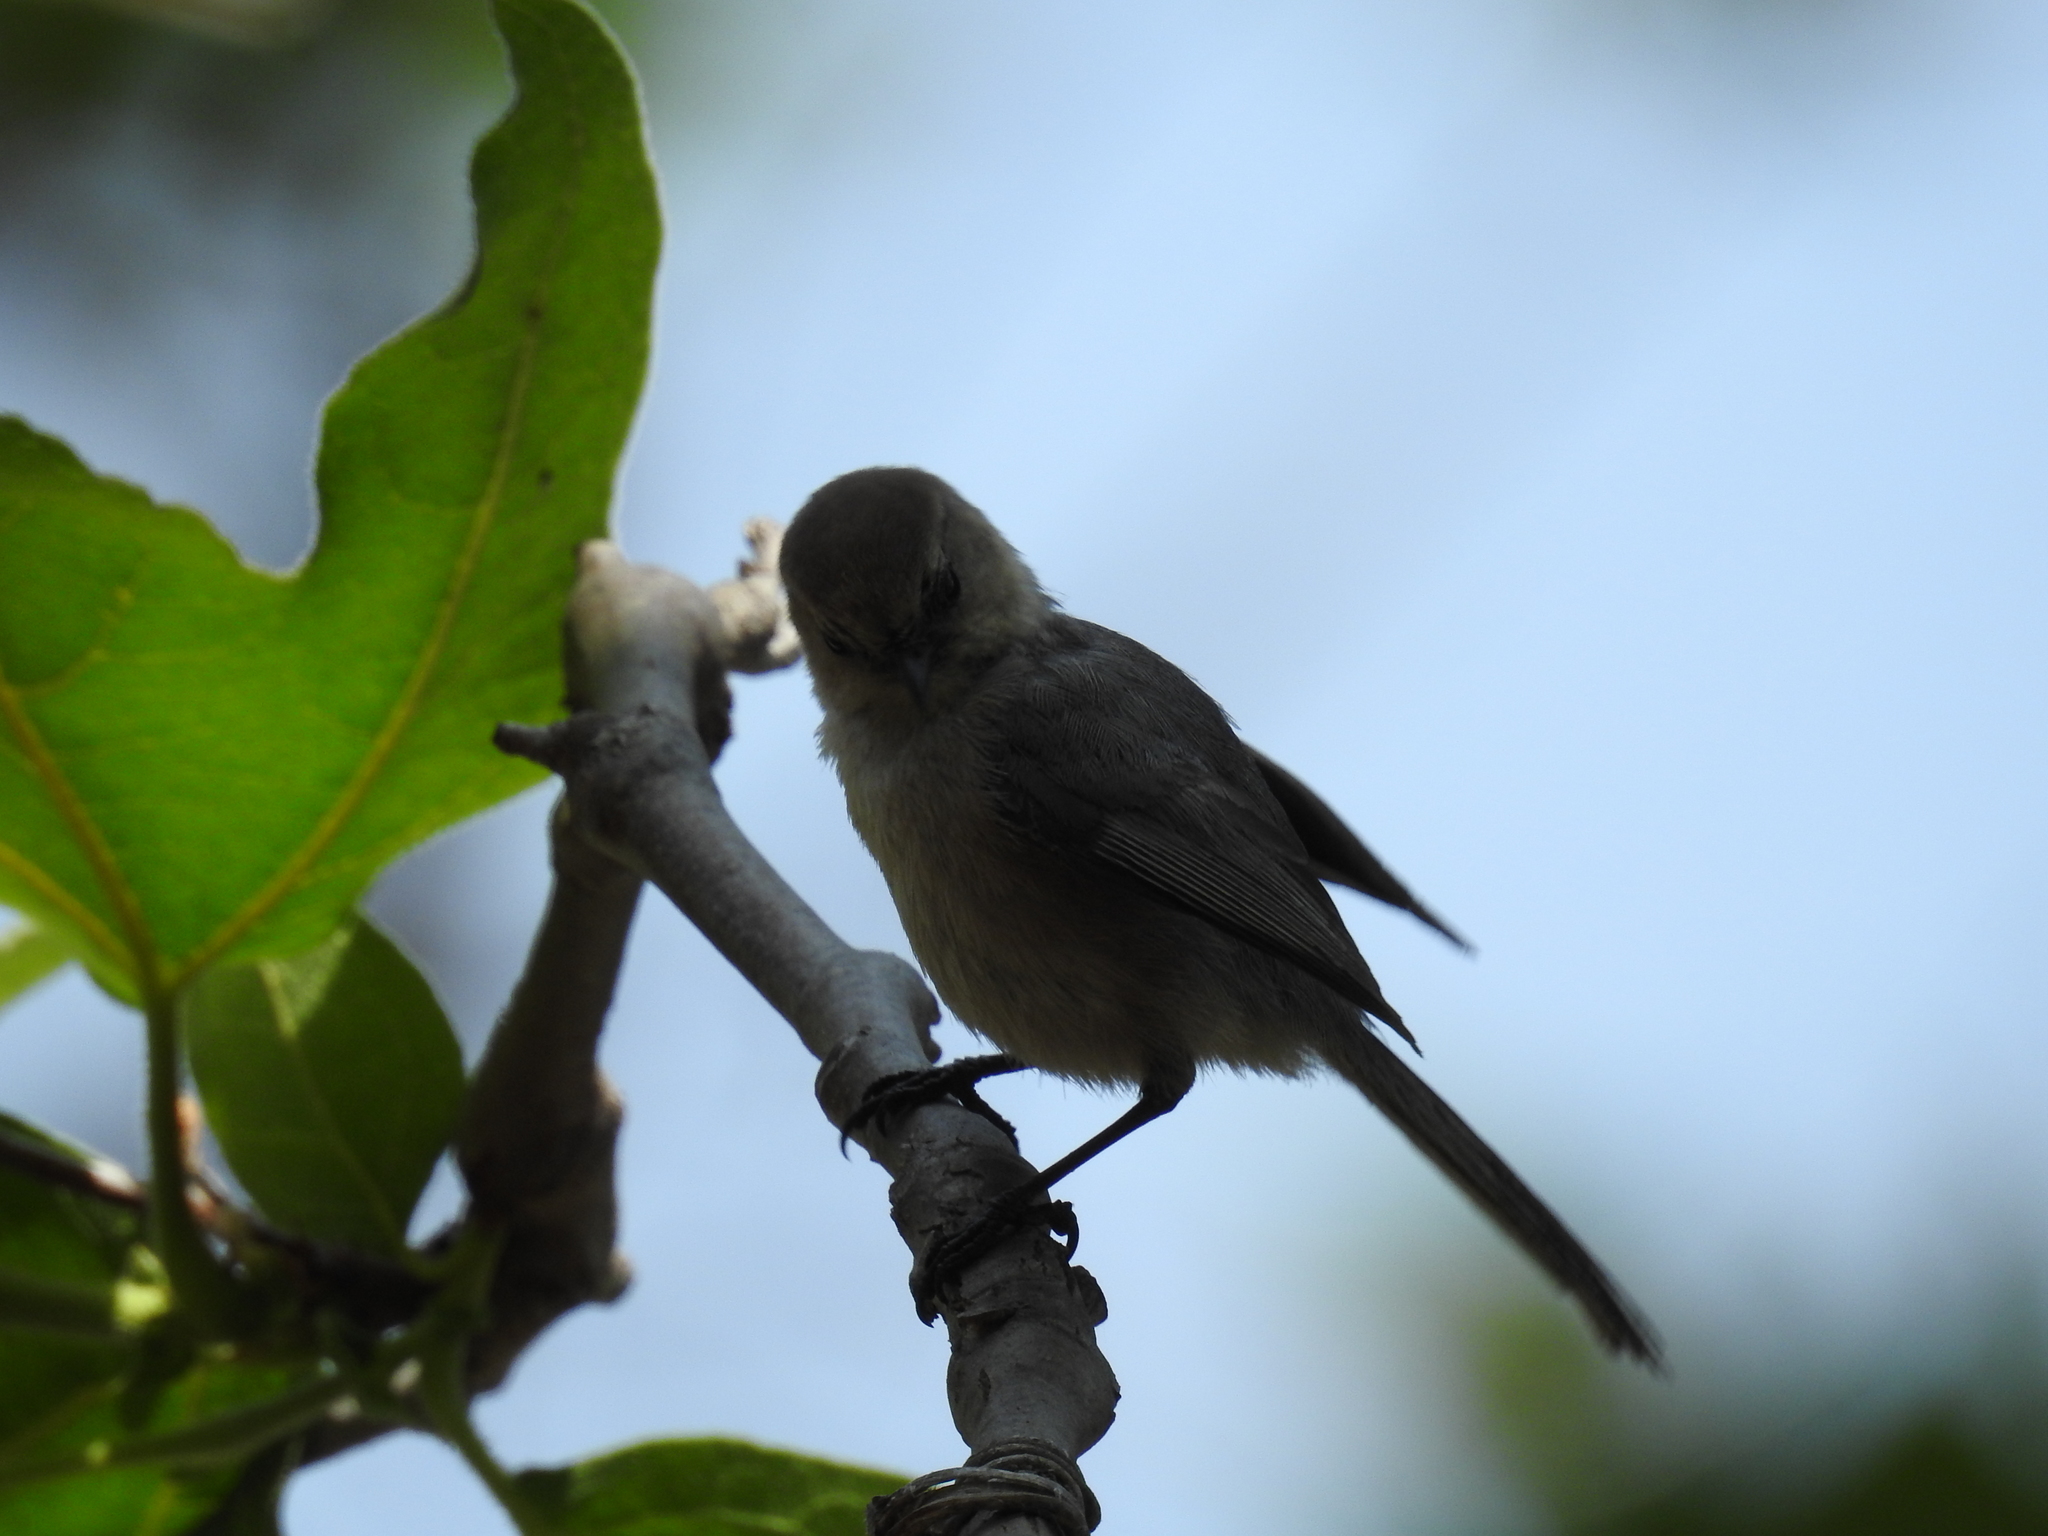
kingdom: Animalia
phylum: Chordata
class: Aves
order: Passeriformes
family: Aegithalidae
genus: Psaltriparus
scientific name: Psaltriparus minimus
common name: American bushtit
